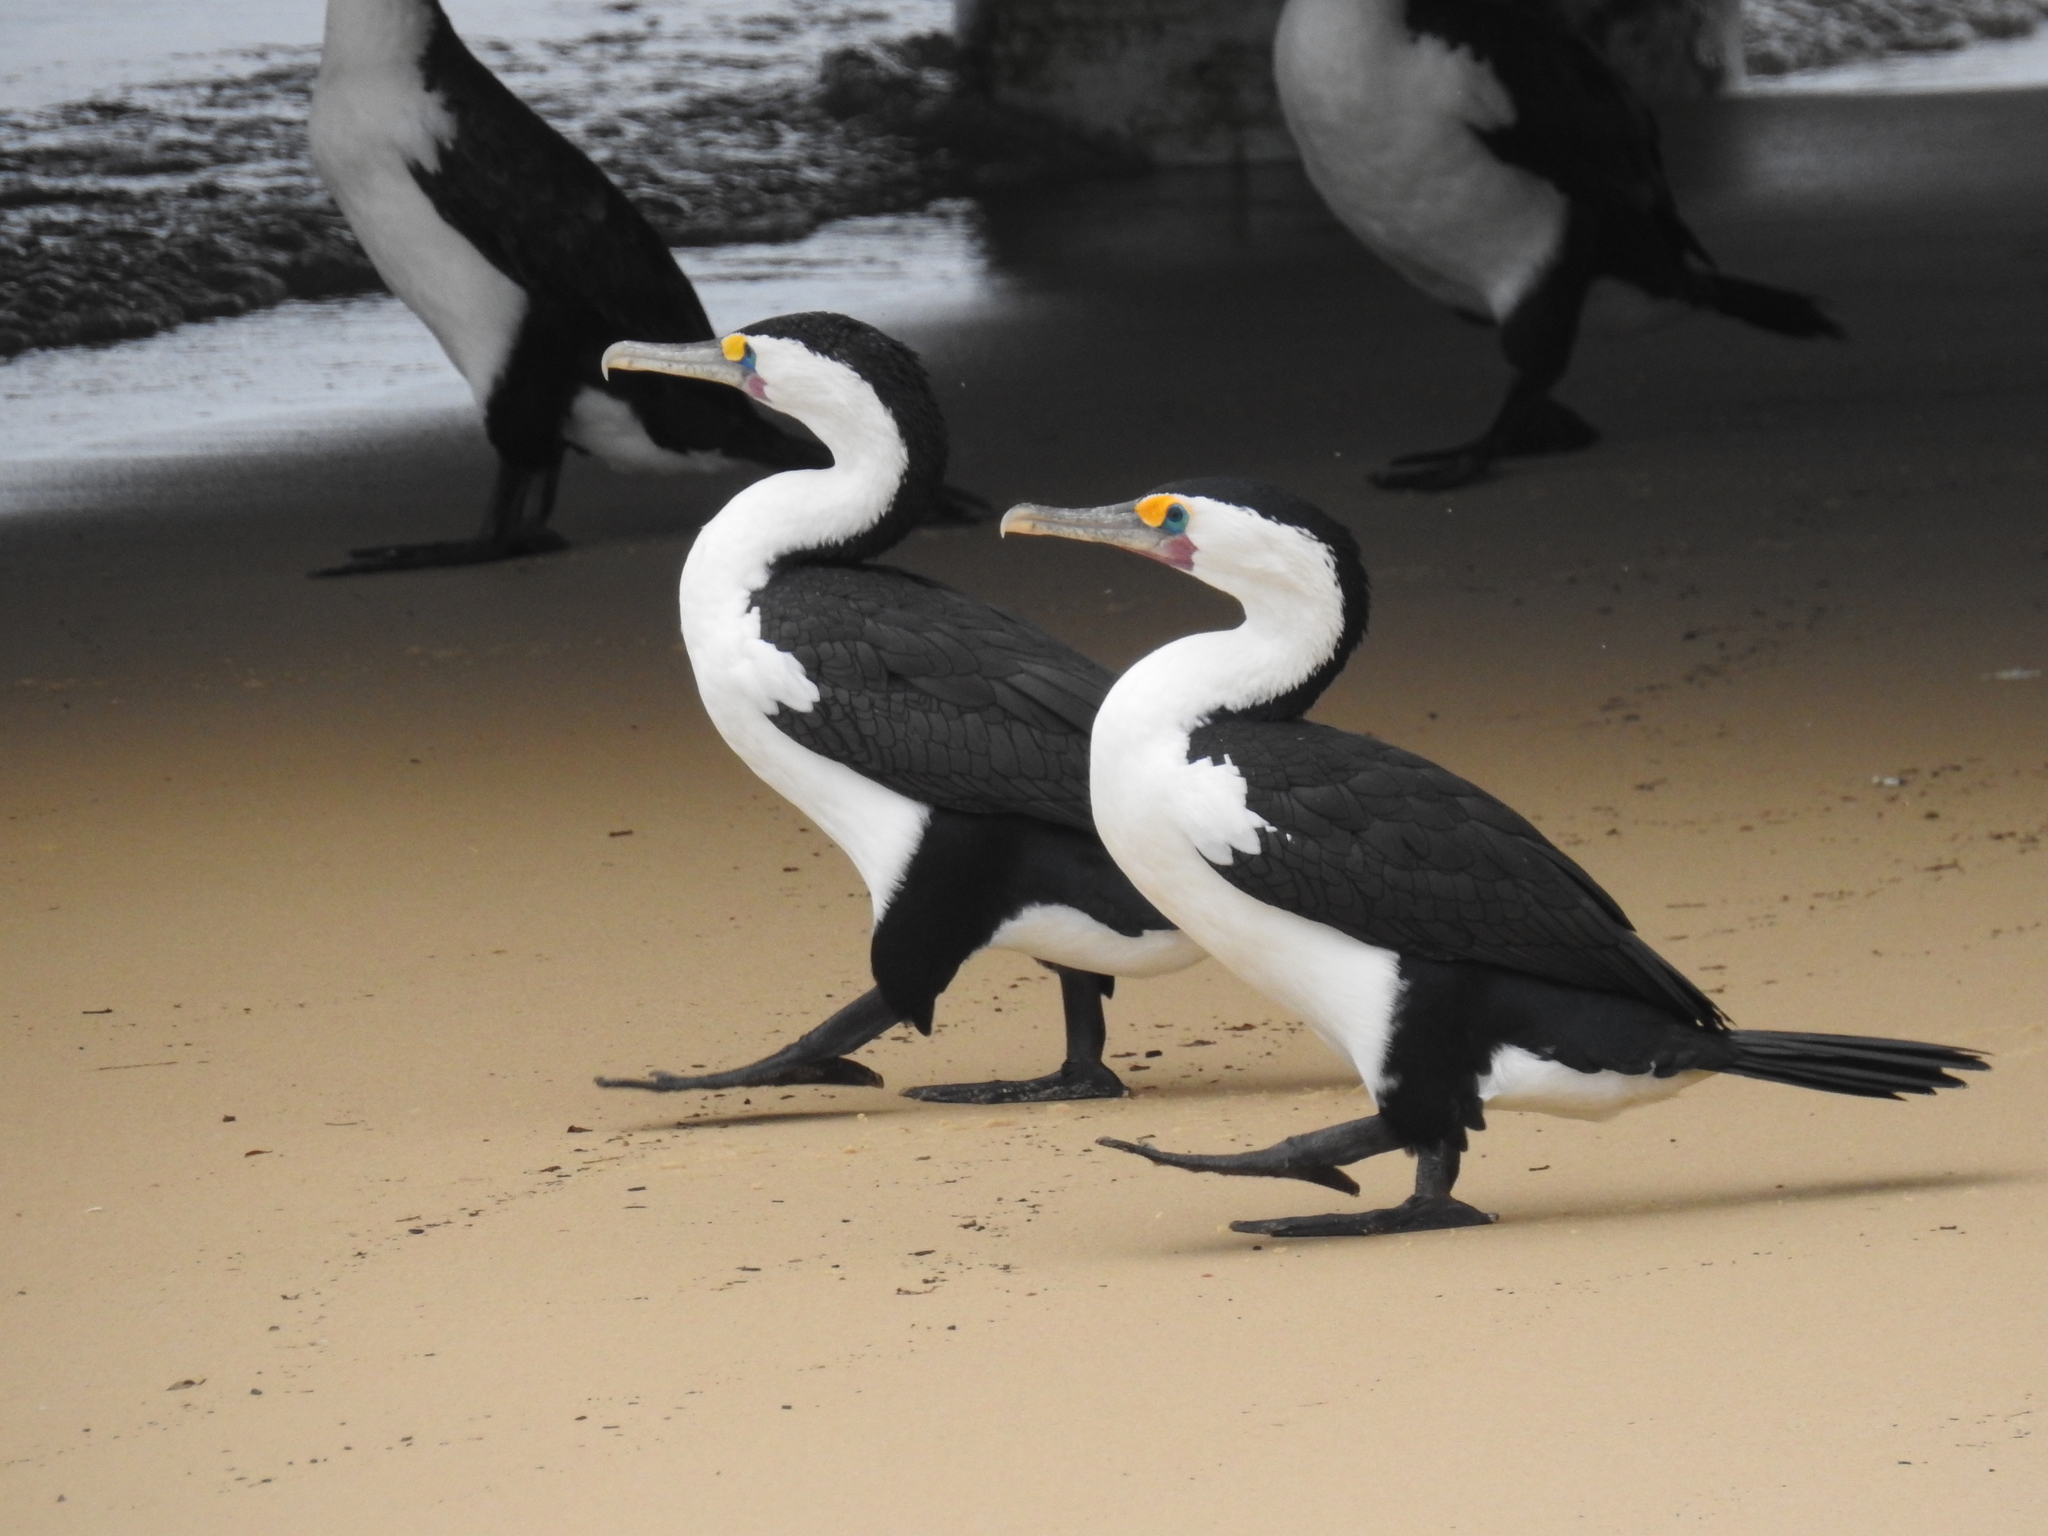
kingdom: Animalia
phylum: Chordata
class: Aves
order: Suliformes
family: Phalacrocoracidae
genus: Phalacrocorax
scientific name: Phalacrocorax varius
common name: Pied cormorant
